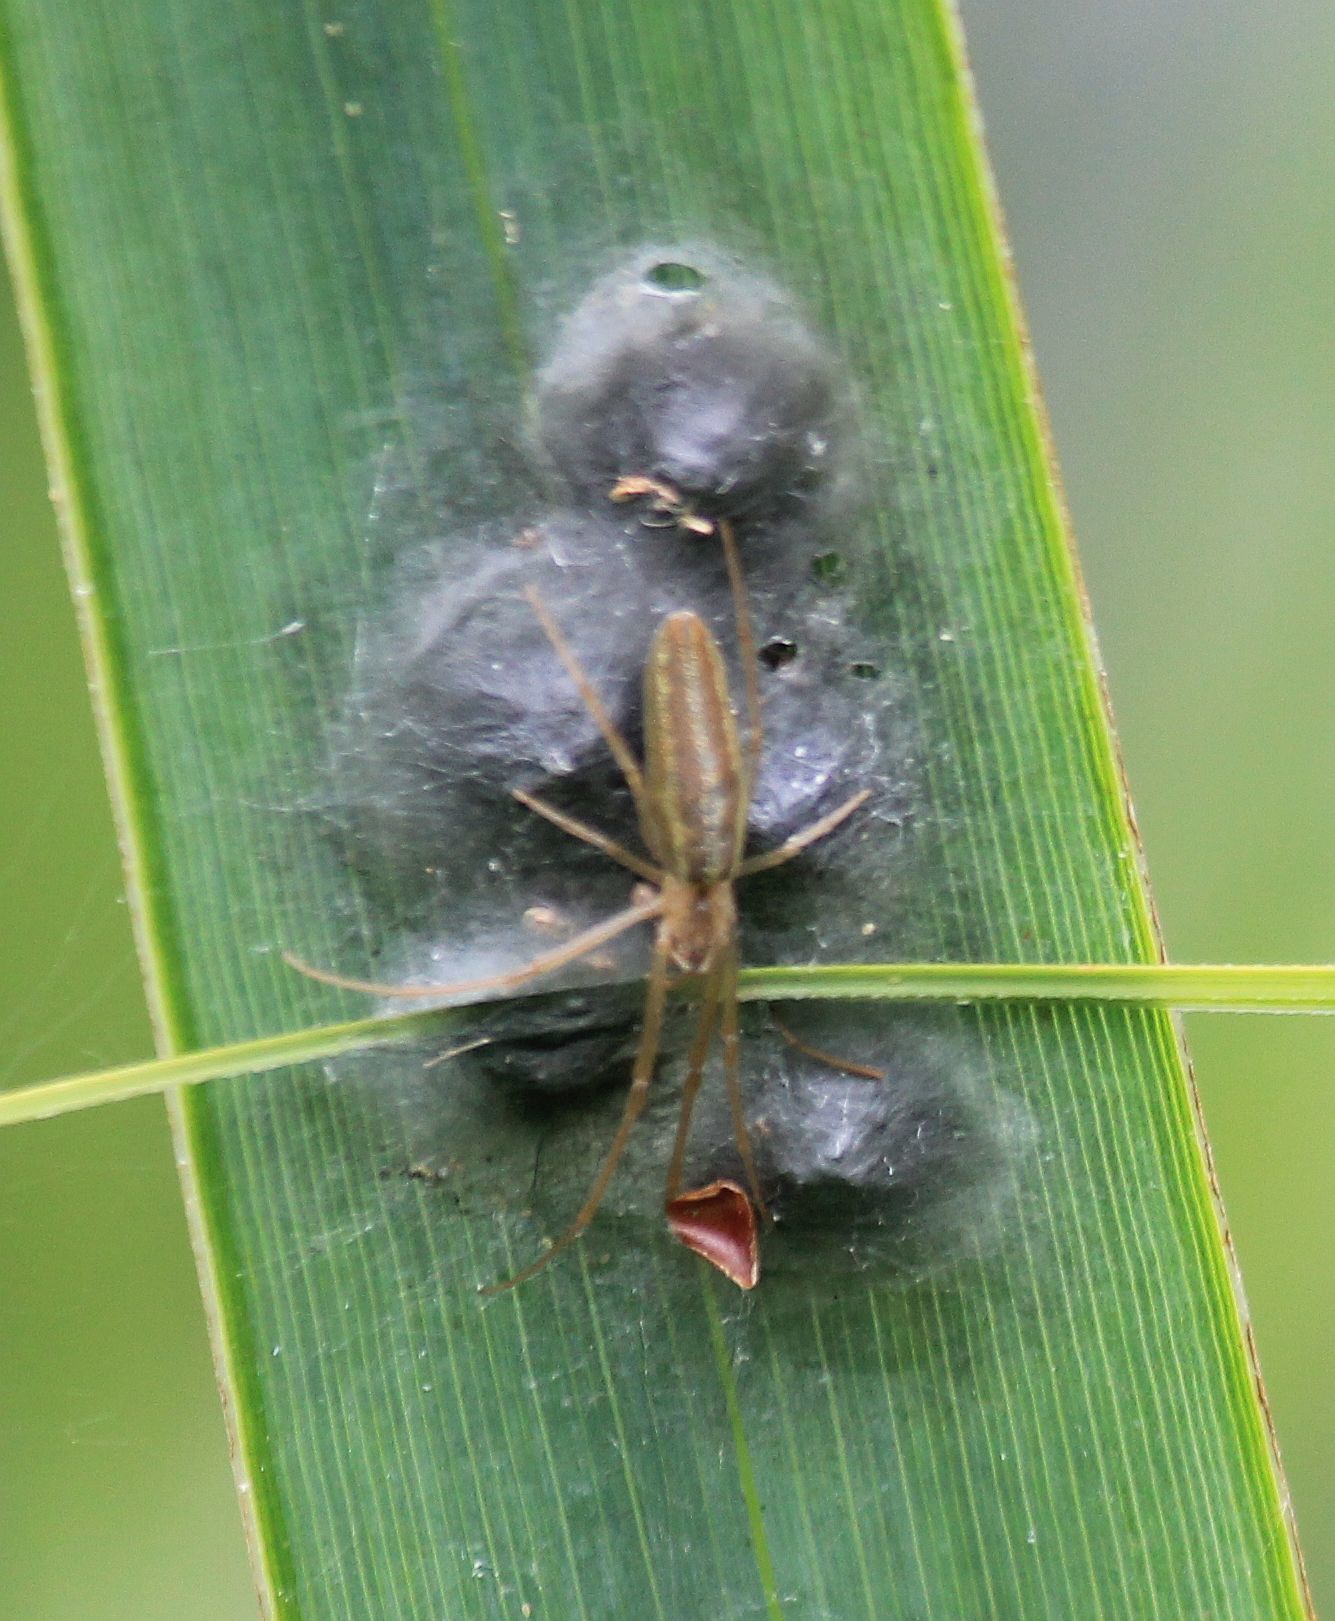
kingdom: Animalia
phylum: Arthropoda
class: Arachnida
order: Araneae
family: Tetragnathidae
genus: Tetragnatha
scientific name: Tetragnatha striata
